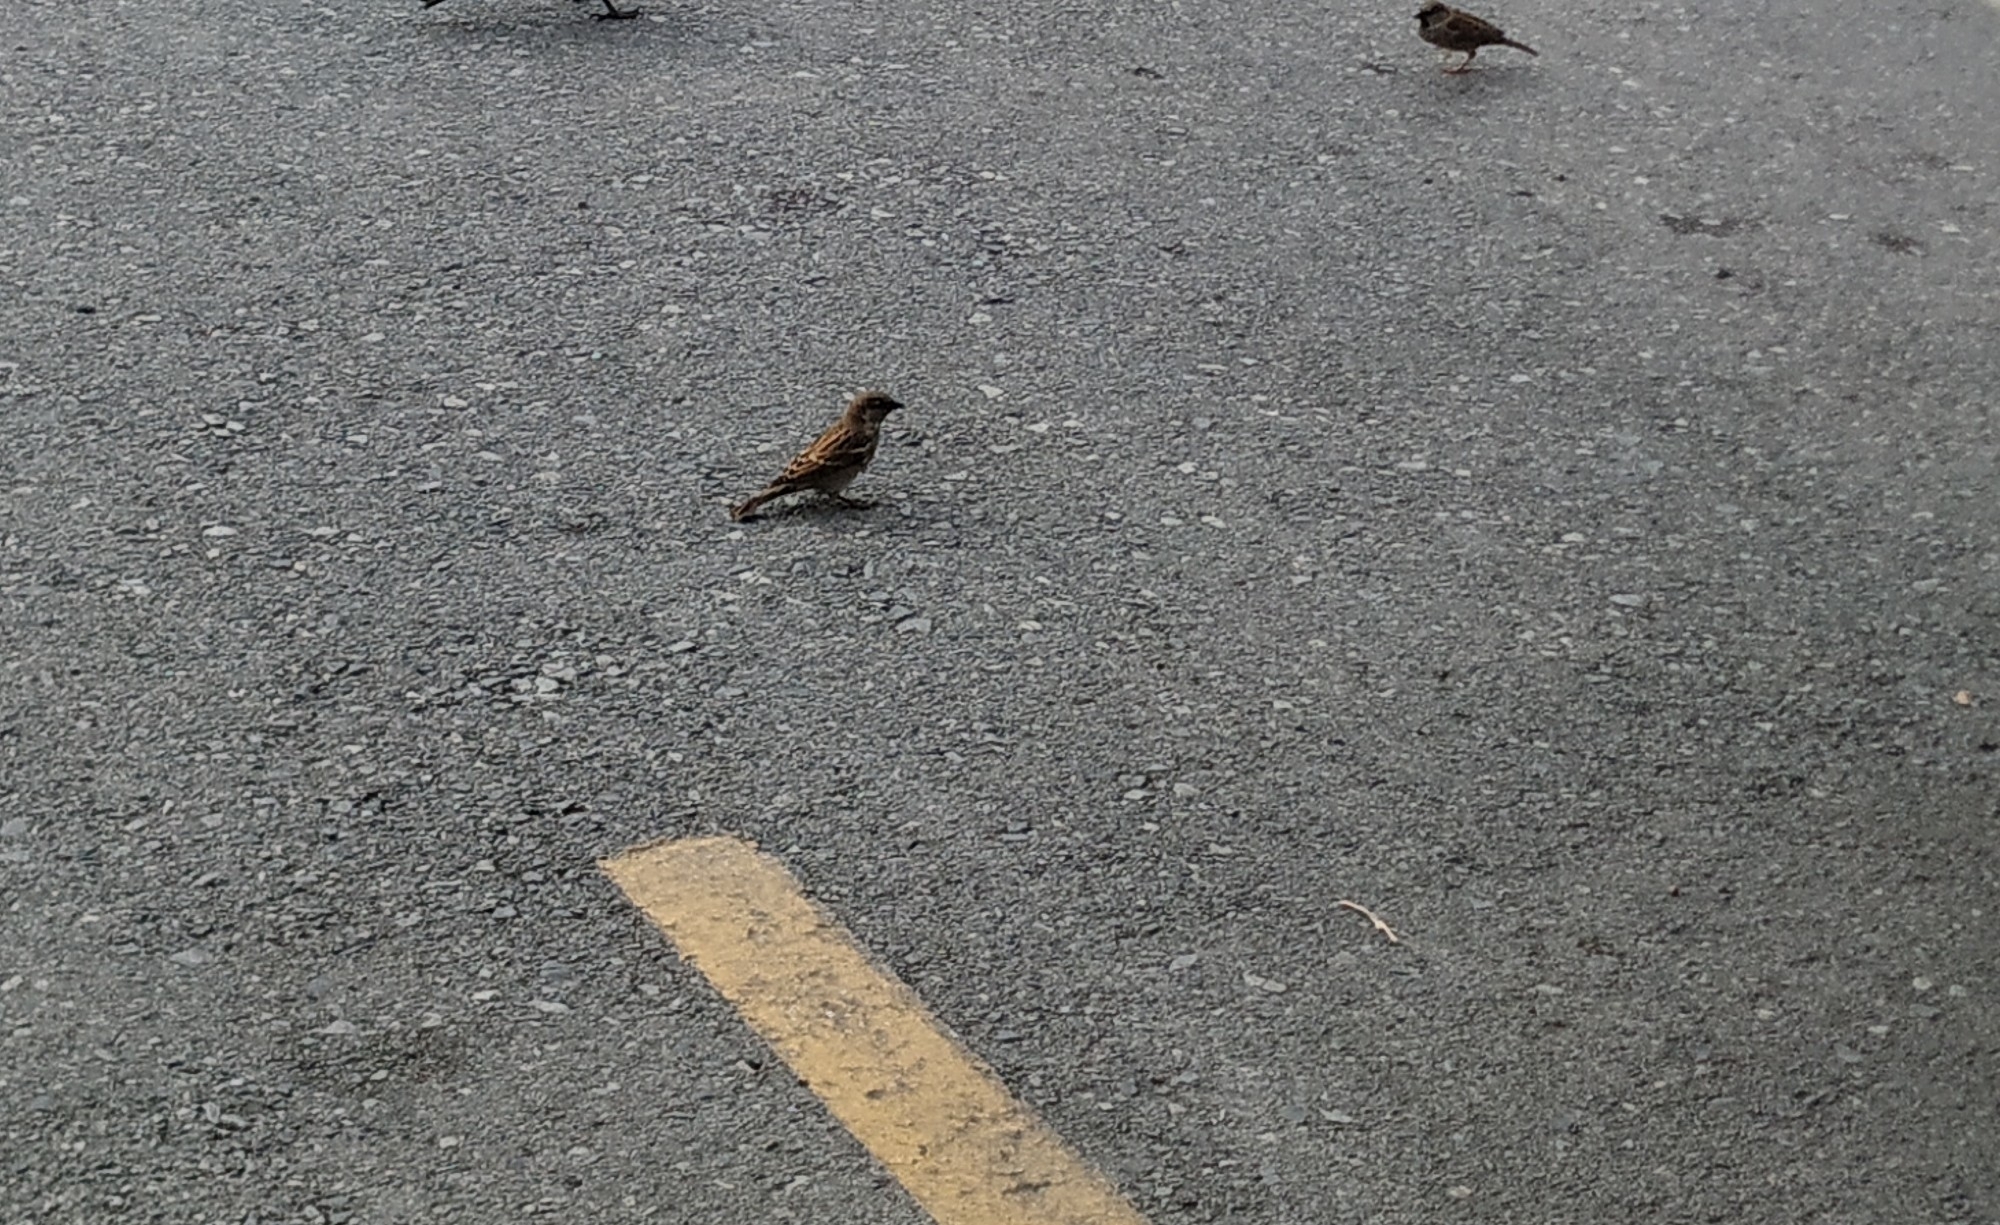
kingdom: Animalia
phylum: Chordata
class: Aves
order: Passeriformes
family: Passeridae
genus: Passer
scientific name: Passer domesticus
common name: House sparrow
